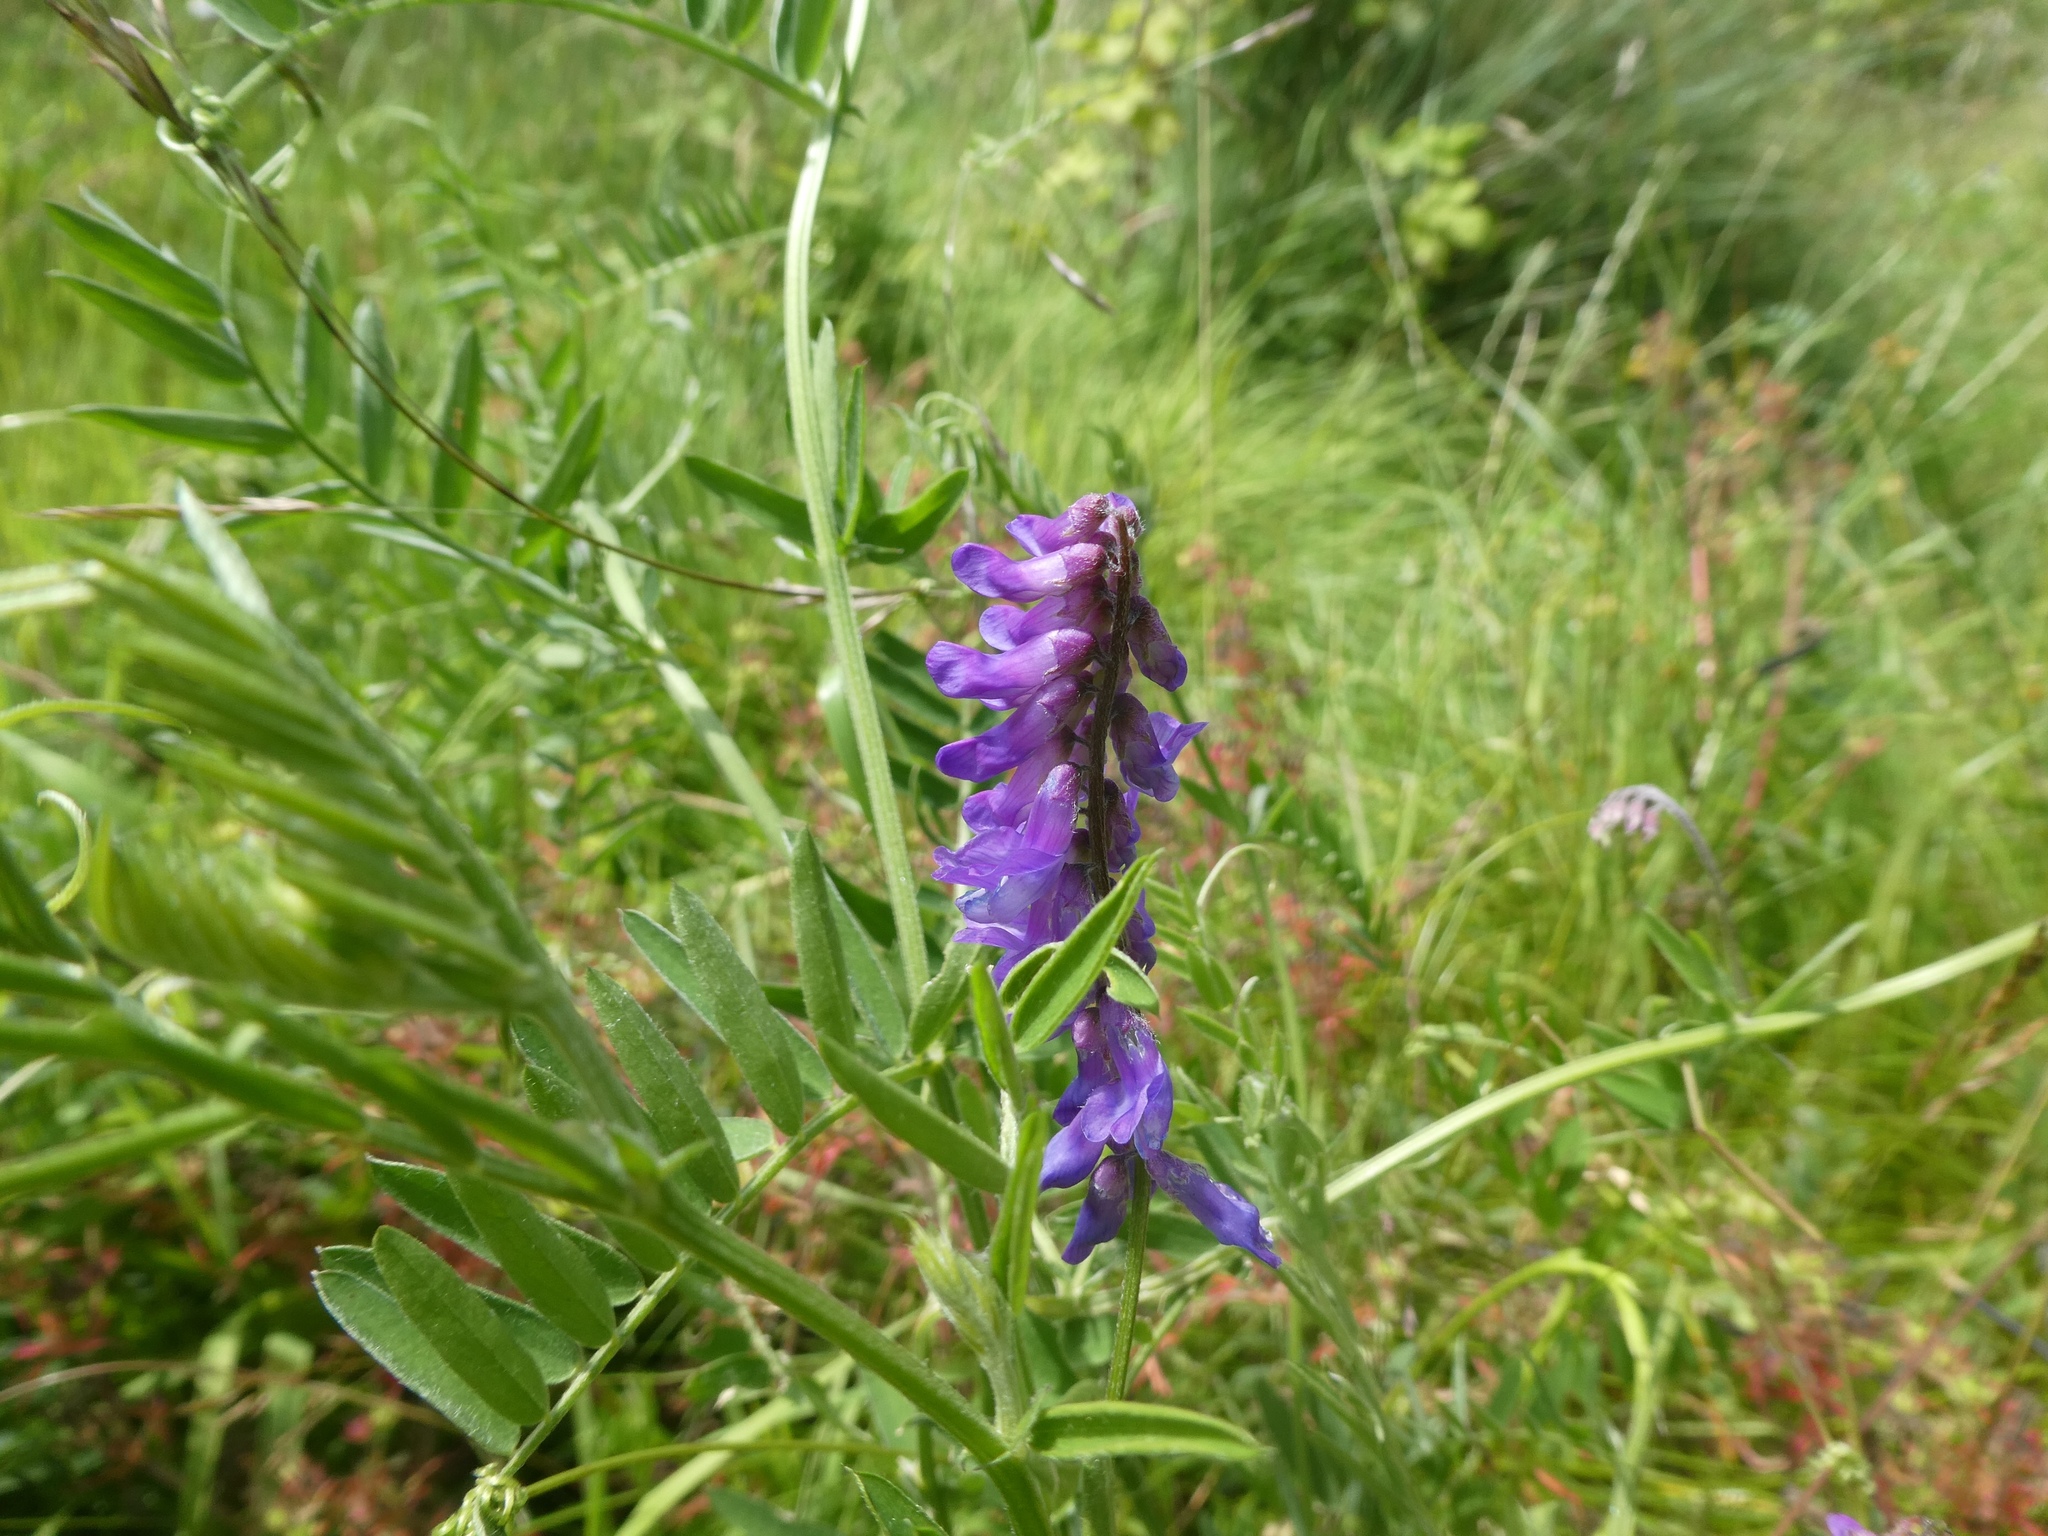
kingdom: Plantae
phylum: Tracheophyta
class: Magnoliopsida
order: Fabales
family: Fabaceae
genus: Vicia
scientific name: Vicia cracca
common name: Bird vetch
